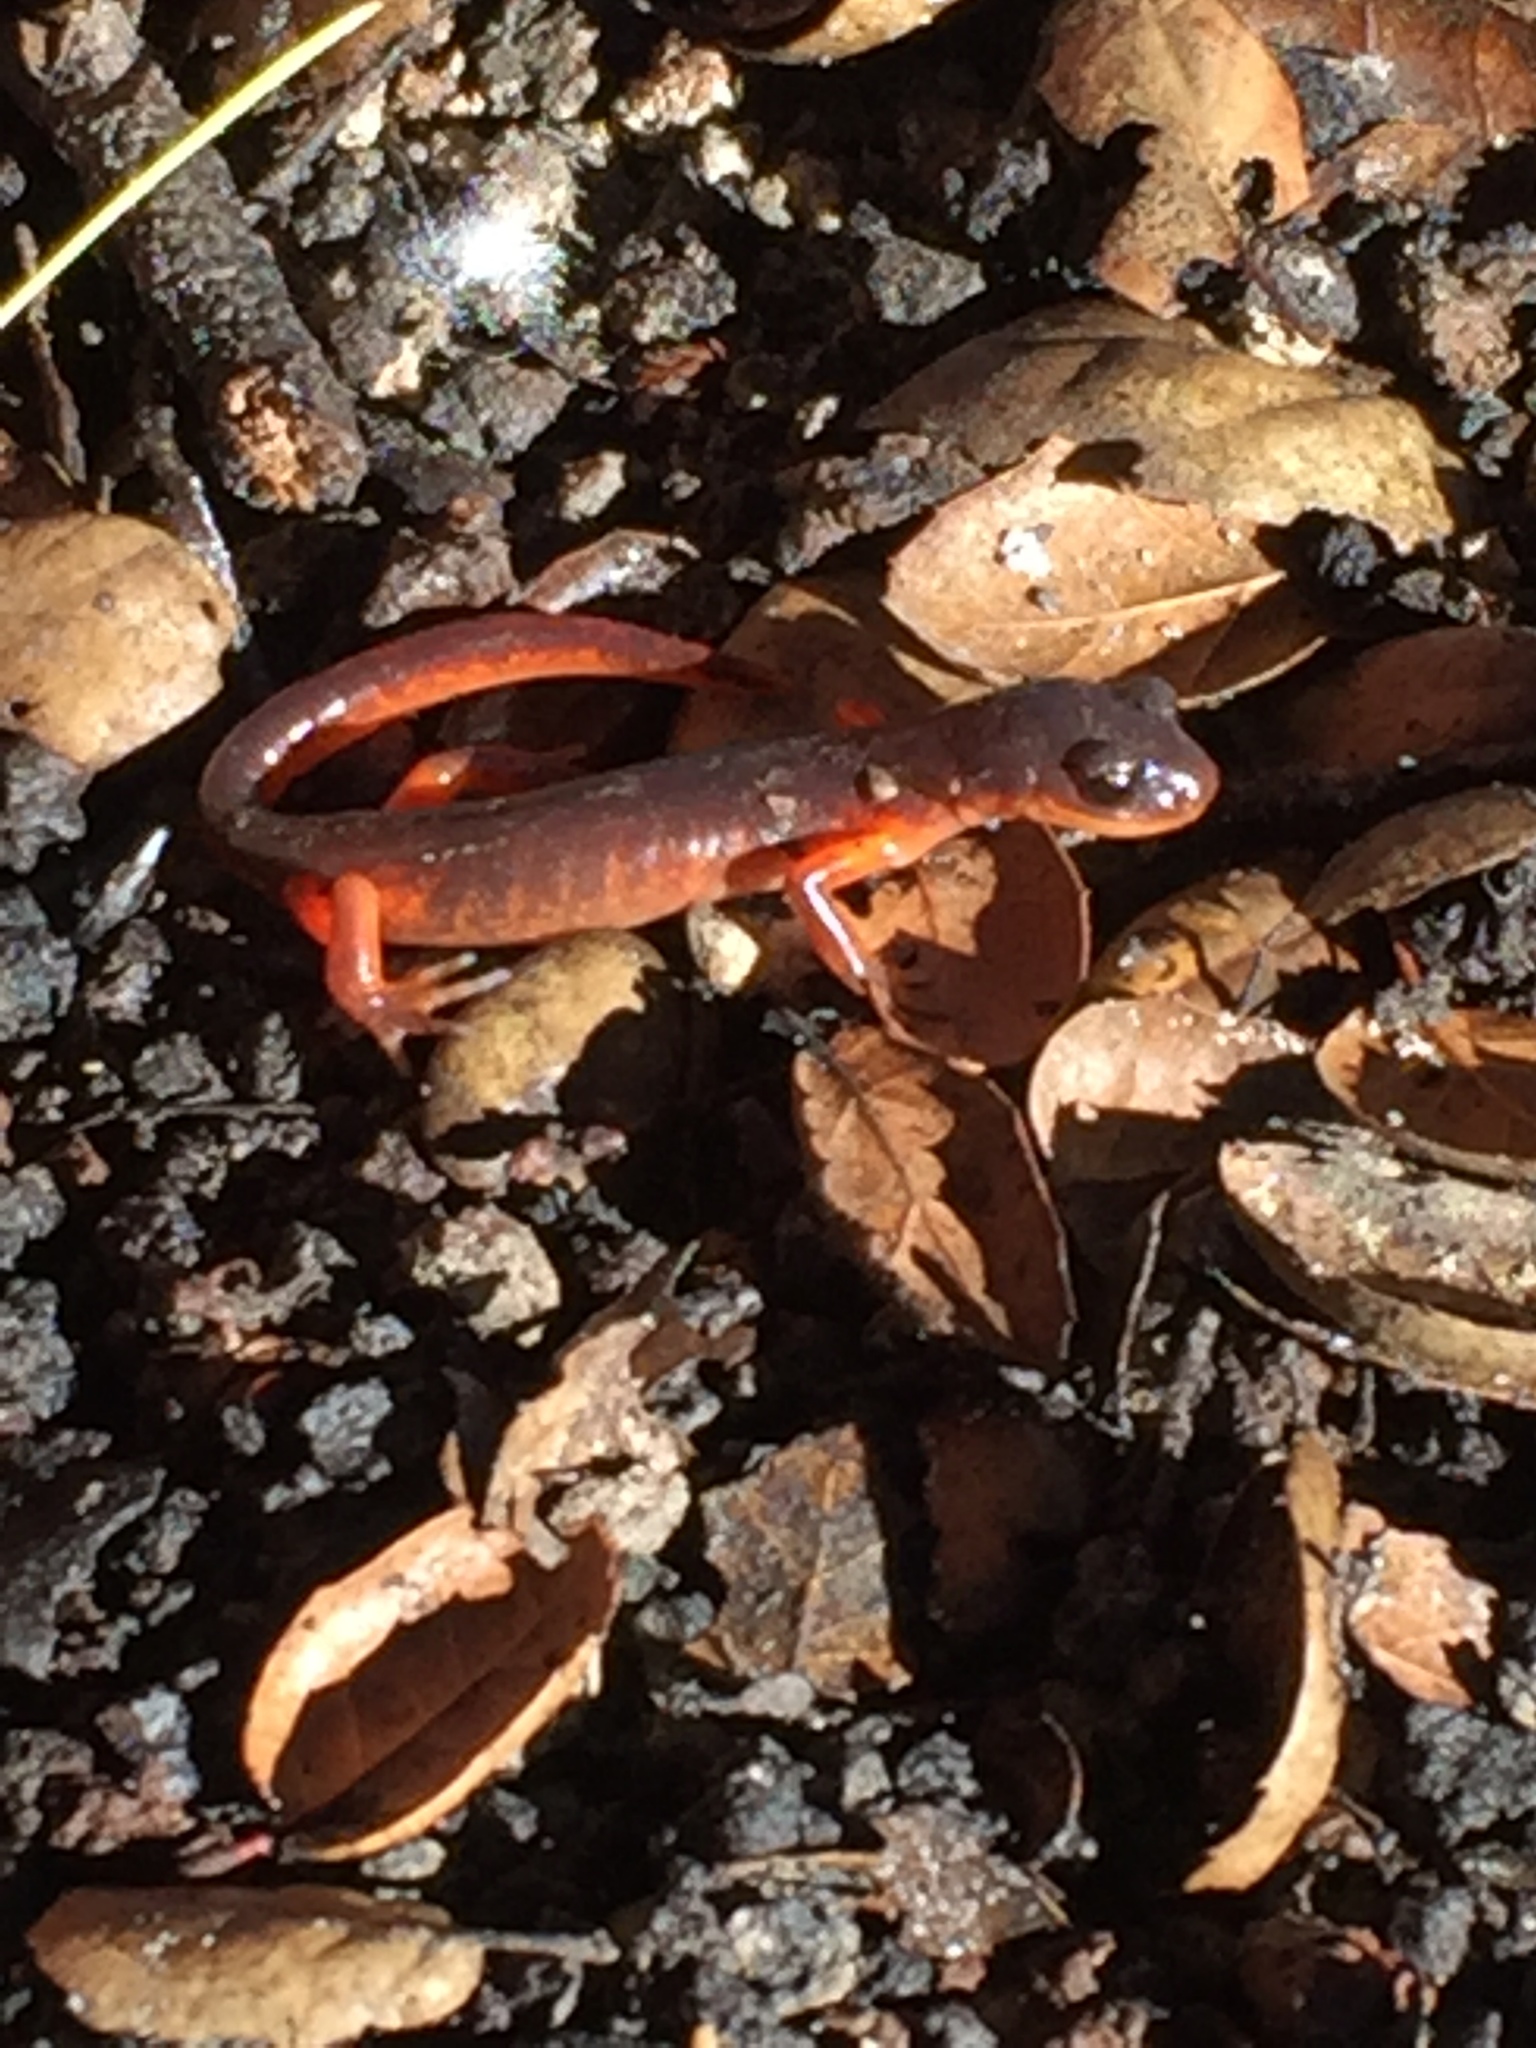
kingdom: Animalia
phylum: Chordata
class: Amphibia
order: Caudata
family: Plethodontidae
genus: Ensatina
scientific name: Ensatina eschscholtzii
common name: Ensatina
